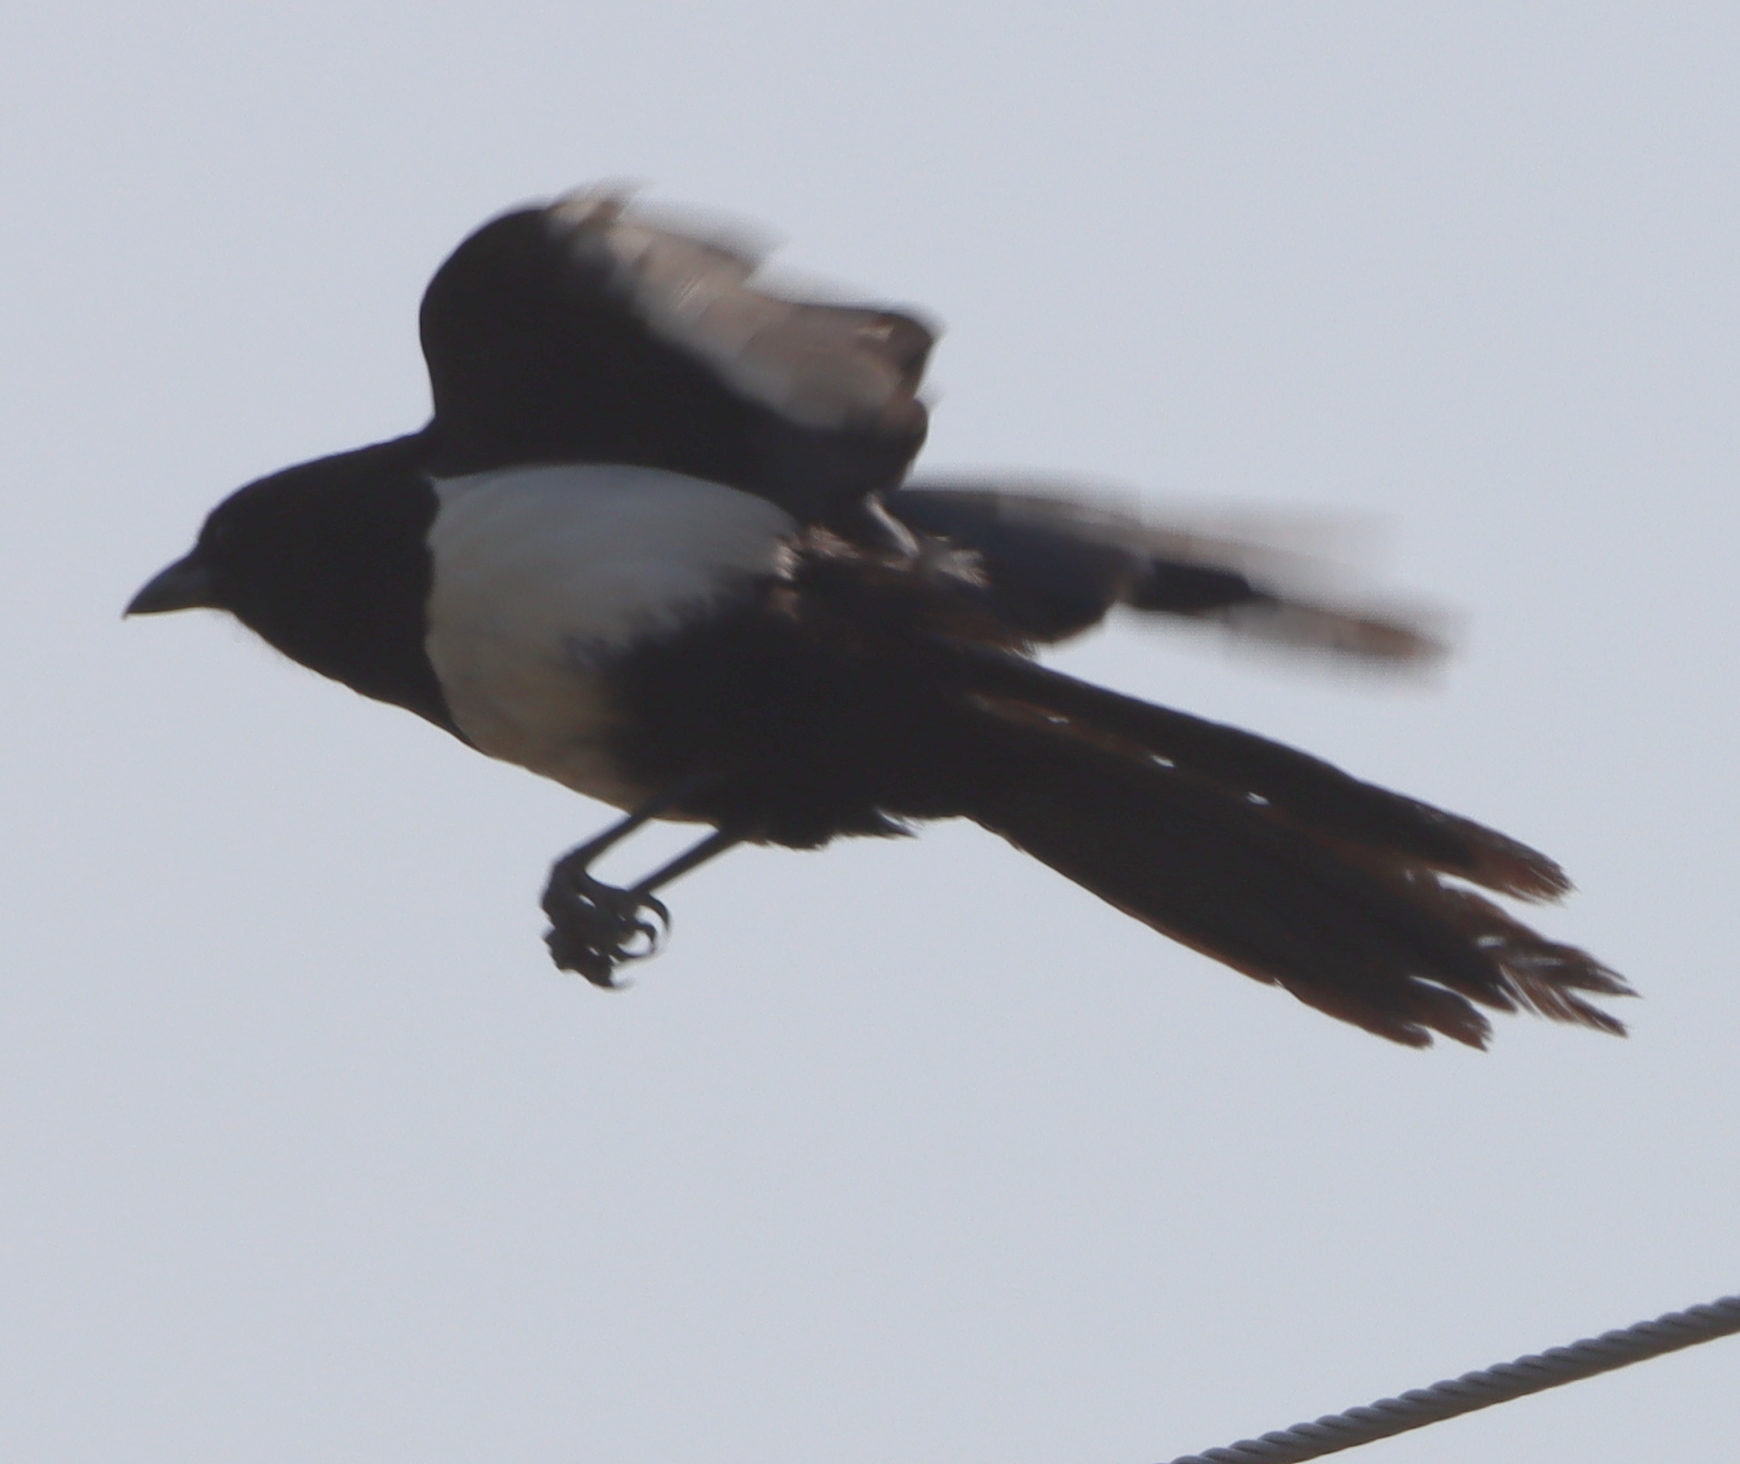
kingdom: Animalia
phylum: Chordata
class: Aves
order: Passeriformes
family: Corvidae
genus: Pica
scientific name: Pica hudsonia
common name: Black-billed magpie
